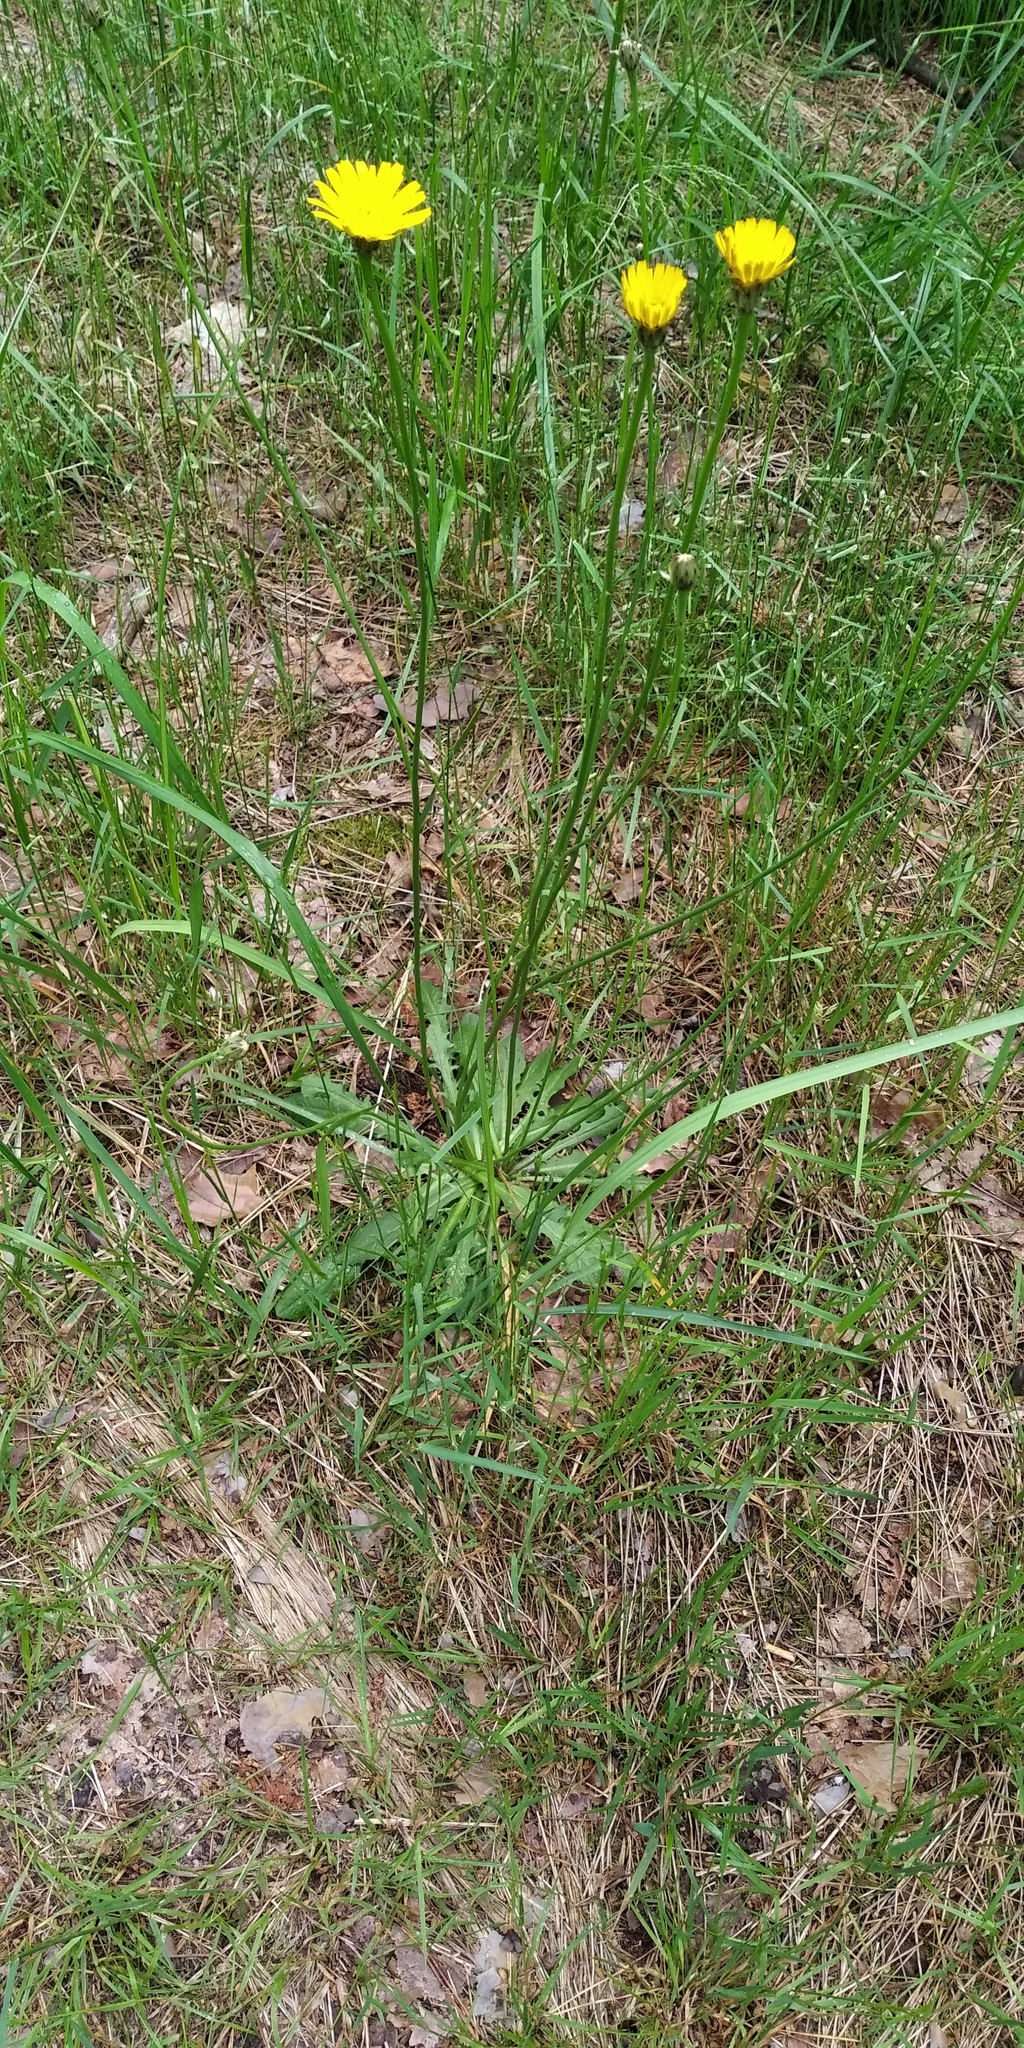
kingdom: Plantae
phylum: Tracheophyta
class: Magnoliopsida
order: Asterales
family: Asteraceae
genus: Hypochaeris
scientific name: Hypochaeris radicata
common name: Flatweed
